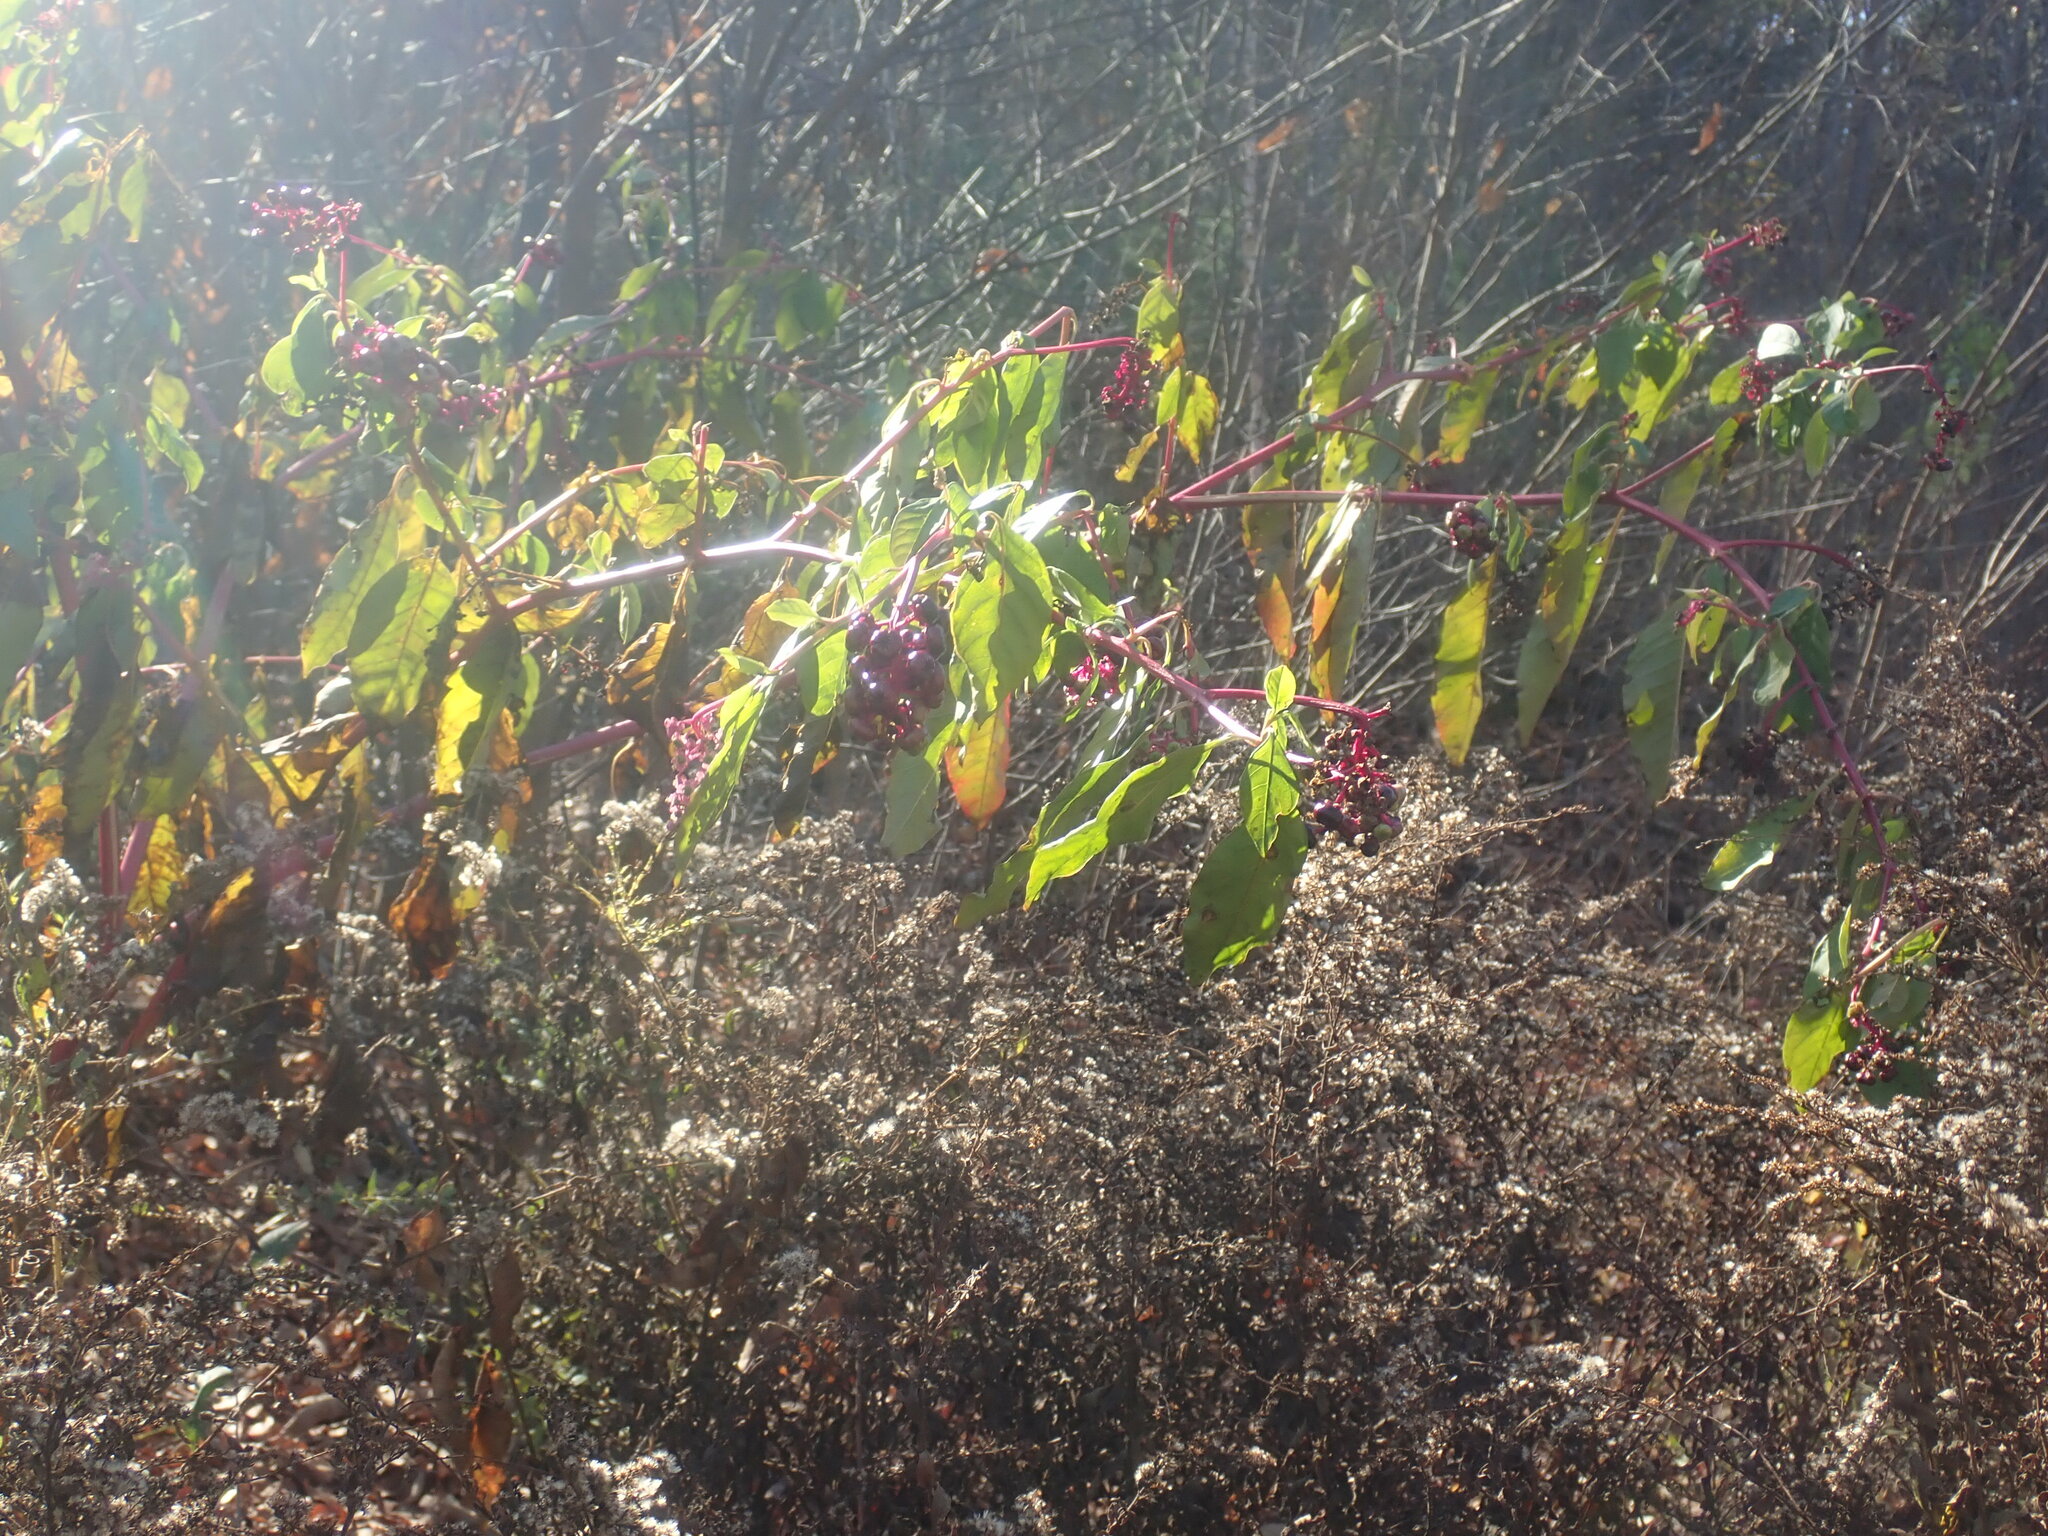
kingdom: Plantae
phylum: Tracheophyta
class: Magnoliopsida
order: Caryophyllales
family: Phytolaccaceae
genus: Phytolacca
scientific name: Phytolacca americana
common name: American pokeweed
